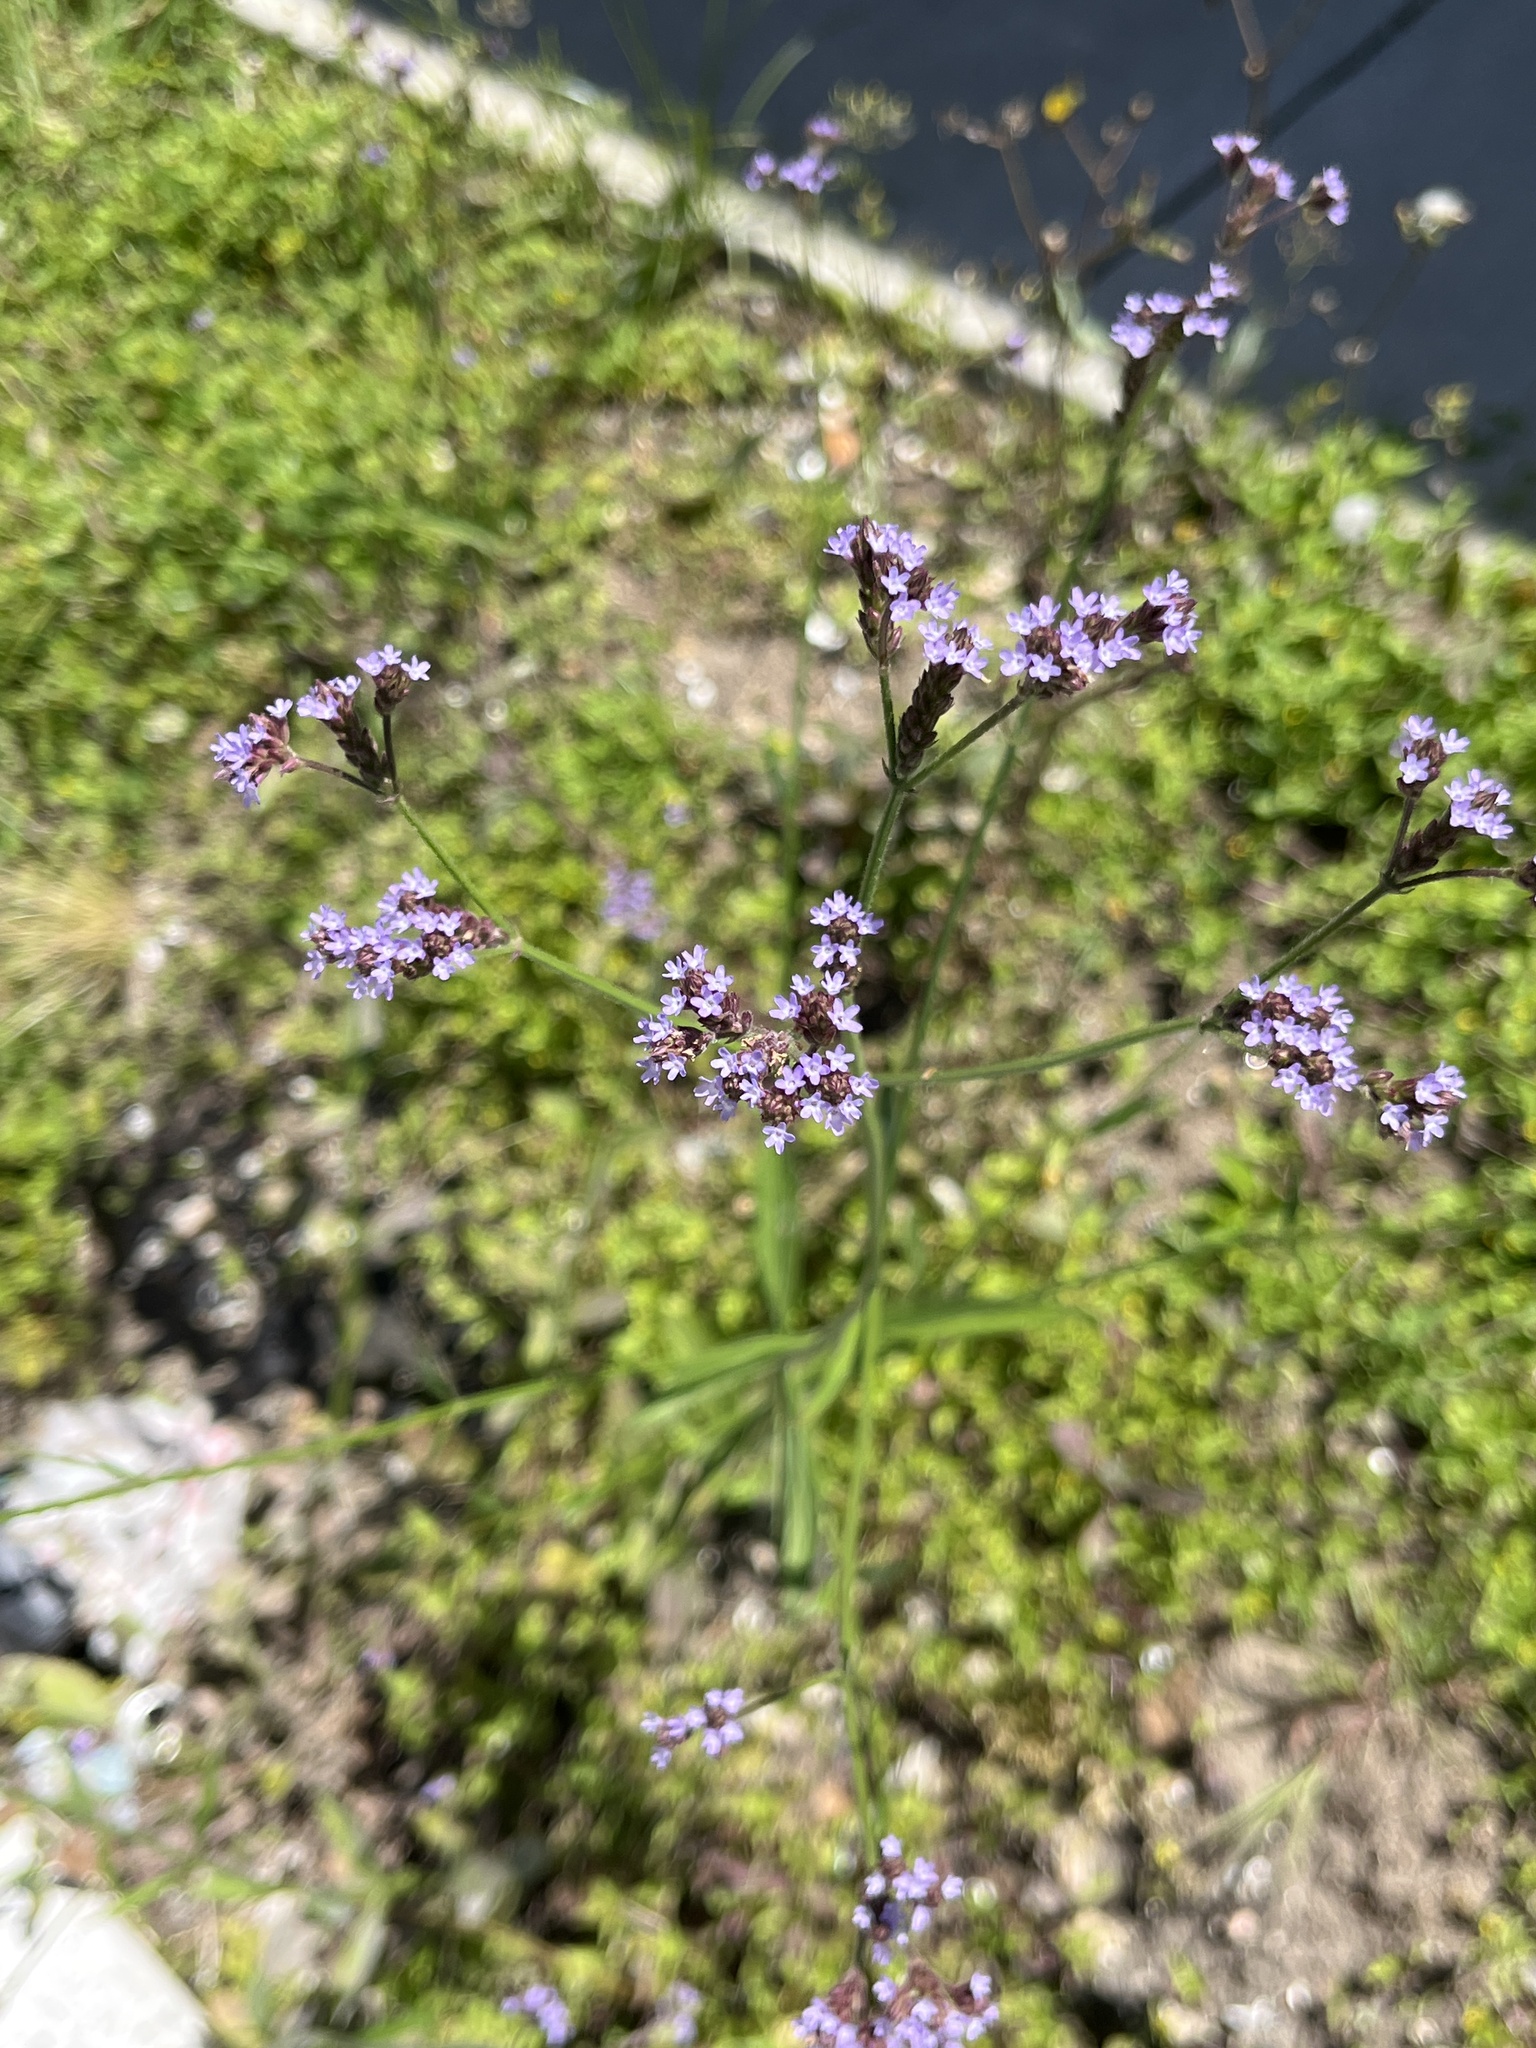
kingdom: Plantae
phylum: Tracheophyta
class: Magnoliopsida
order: Lamiales
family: Verbenaceae
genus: Verbena
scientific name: Verbena brasiliensis
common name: Brazilian vervain
